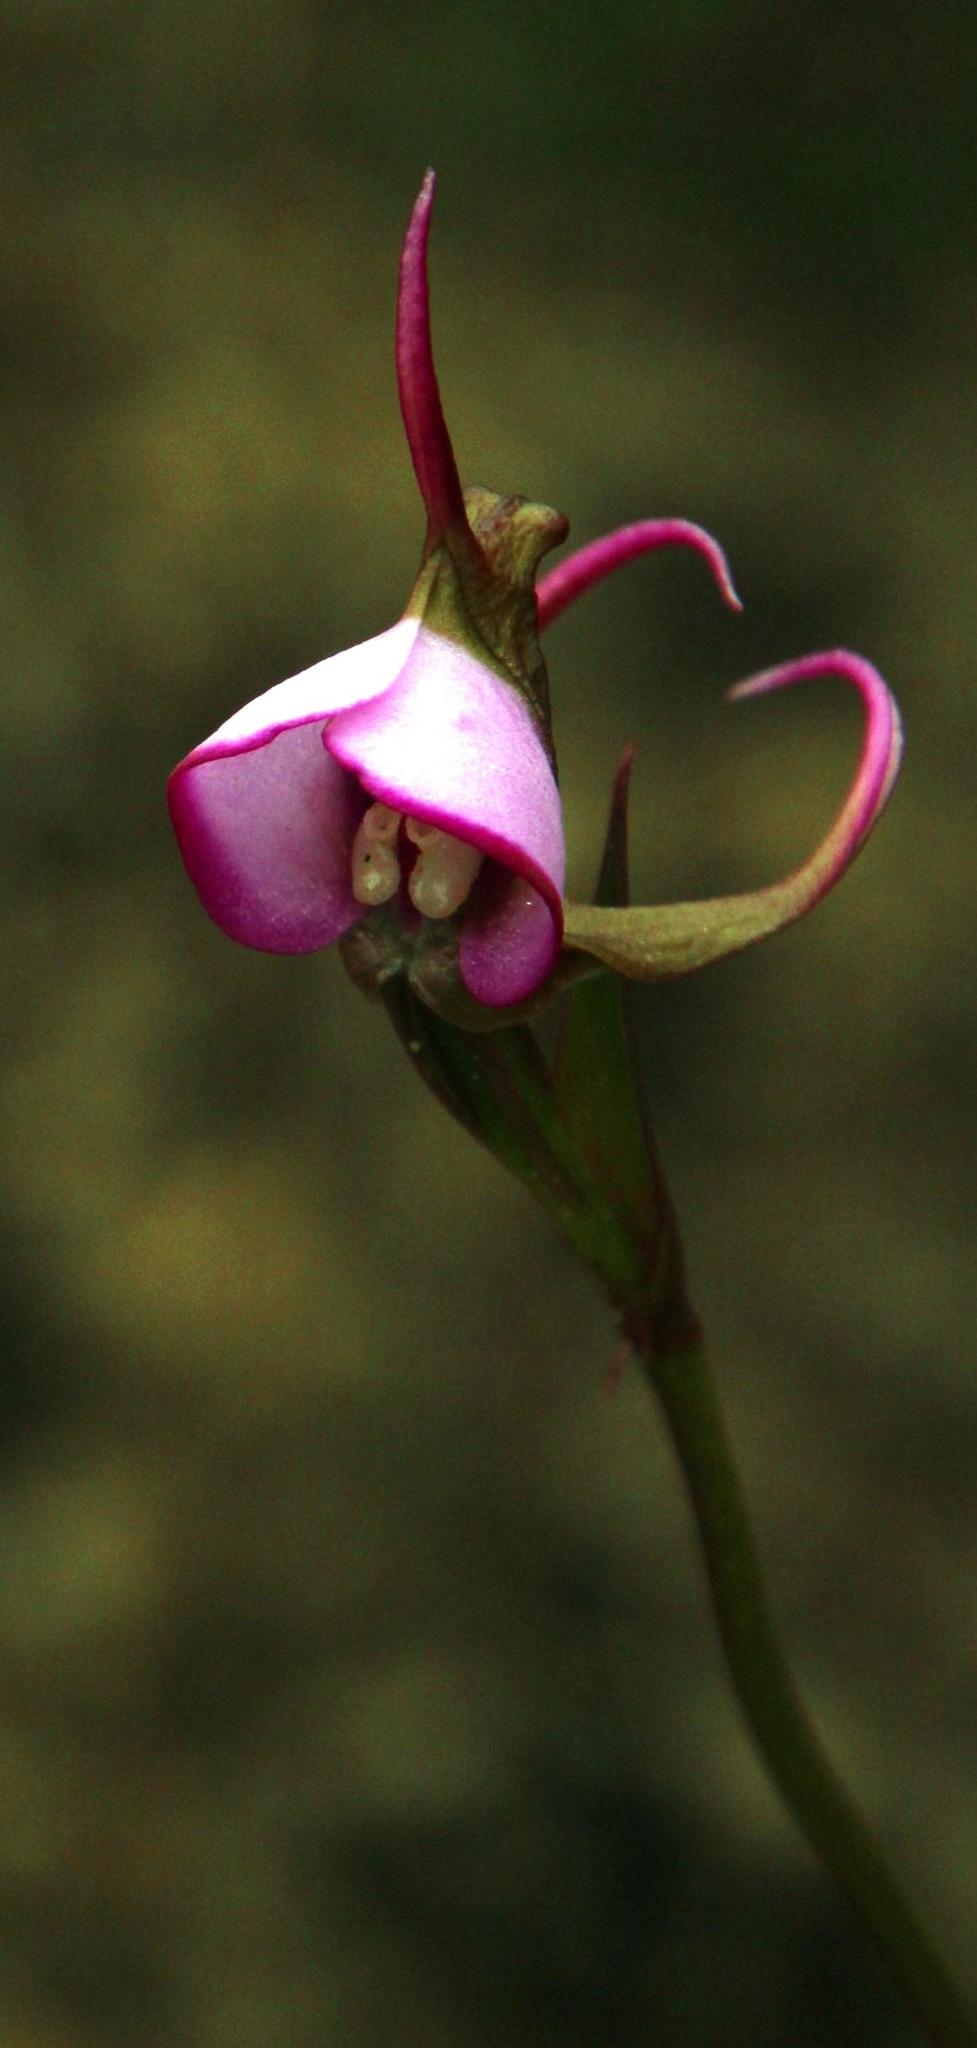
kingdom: Plantae
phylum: Tracheophyta
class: Liliopsida
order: Asparagales
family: Orchidaceae
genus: Disperis
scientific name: Disperis capensis
